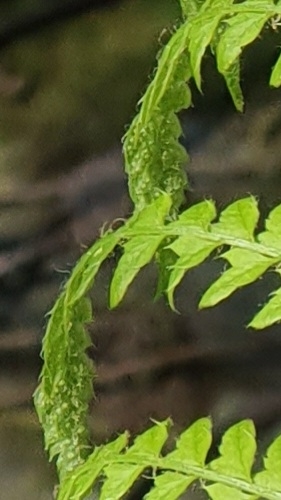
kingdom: Plantae
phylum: Tracheophyta
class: Polypodiopsida
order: Polypodiales
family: Dryopteridaceae
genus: Polystichum
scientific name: Polystichum setiferum
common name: Soft shield-fern
